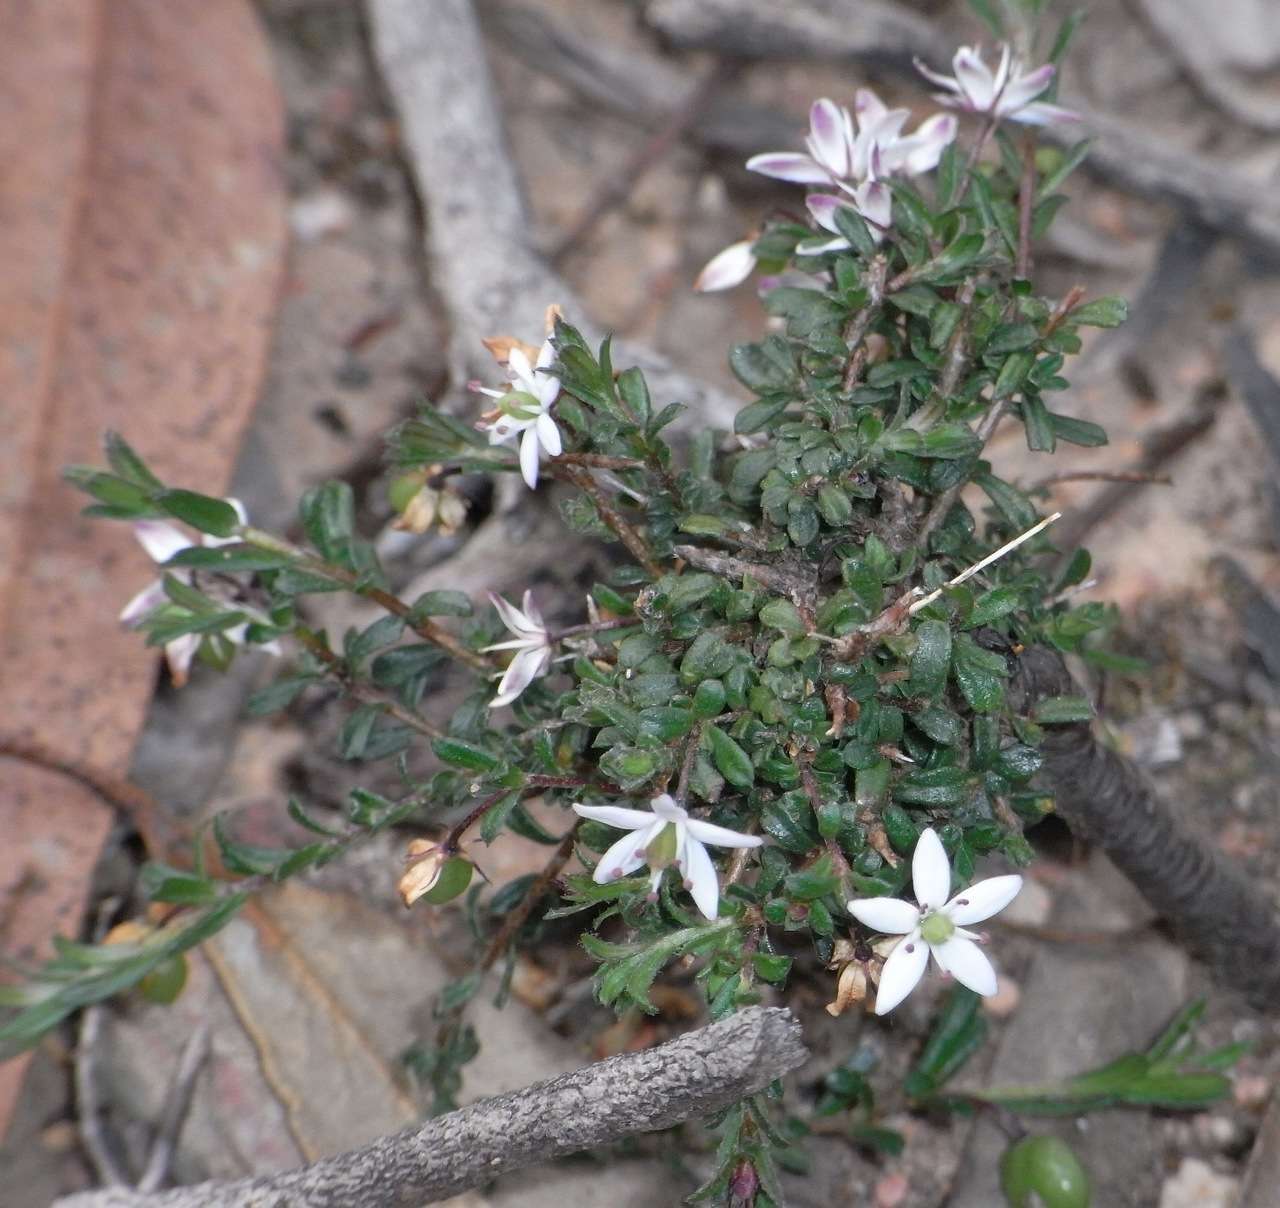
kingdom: Plantae
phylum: Tracheophyta
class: Magnoliopsida
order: Apiales
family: Pittosporaceae
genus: Rhytidosporum
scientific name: Rhytidosporum procumbens
